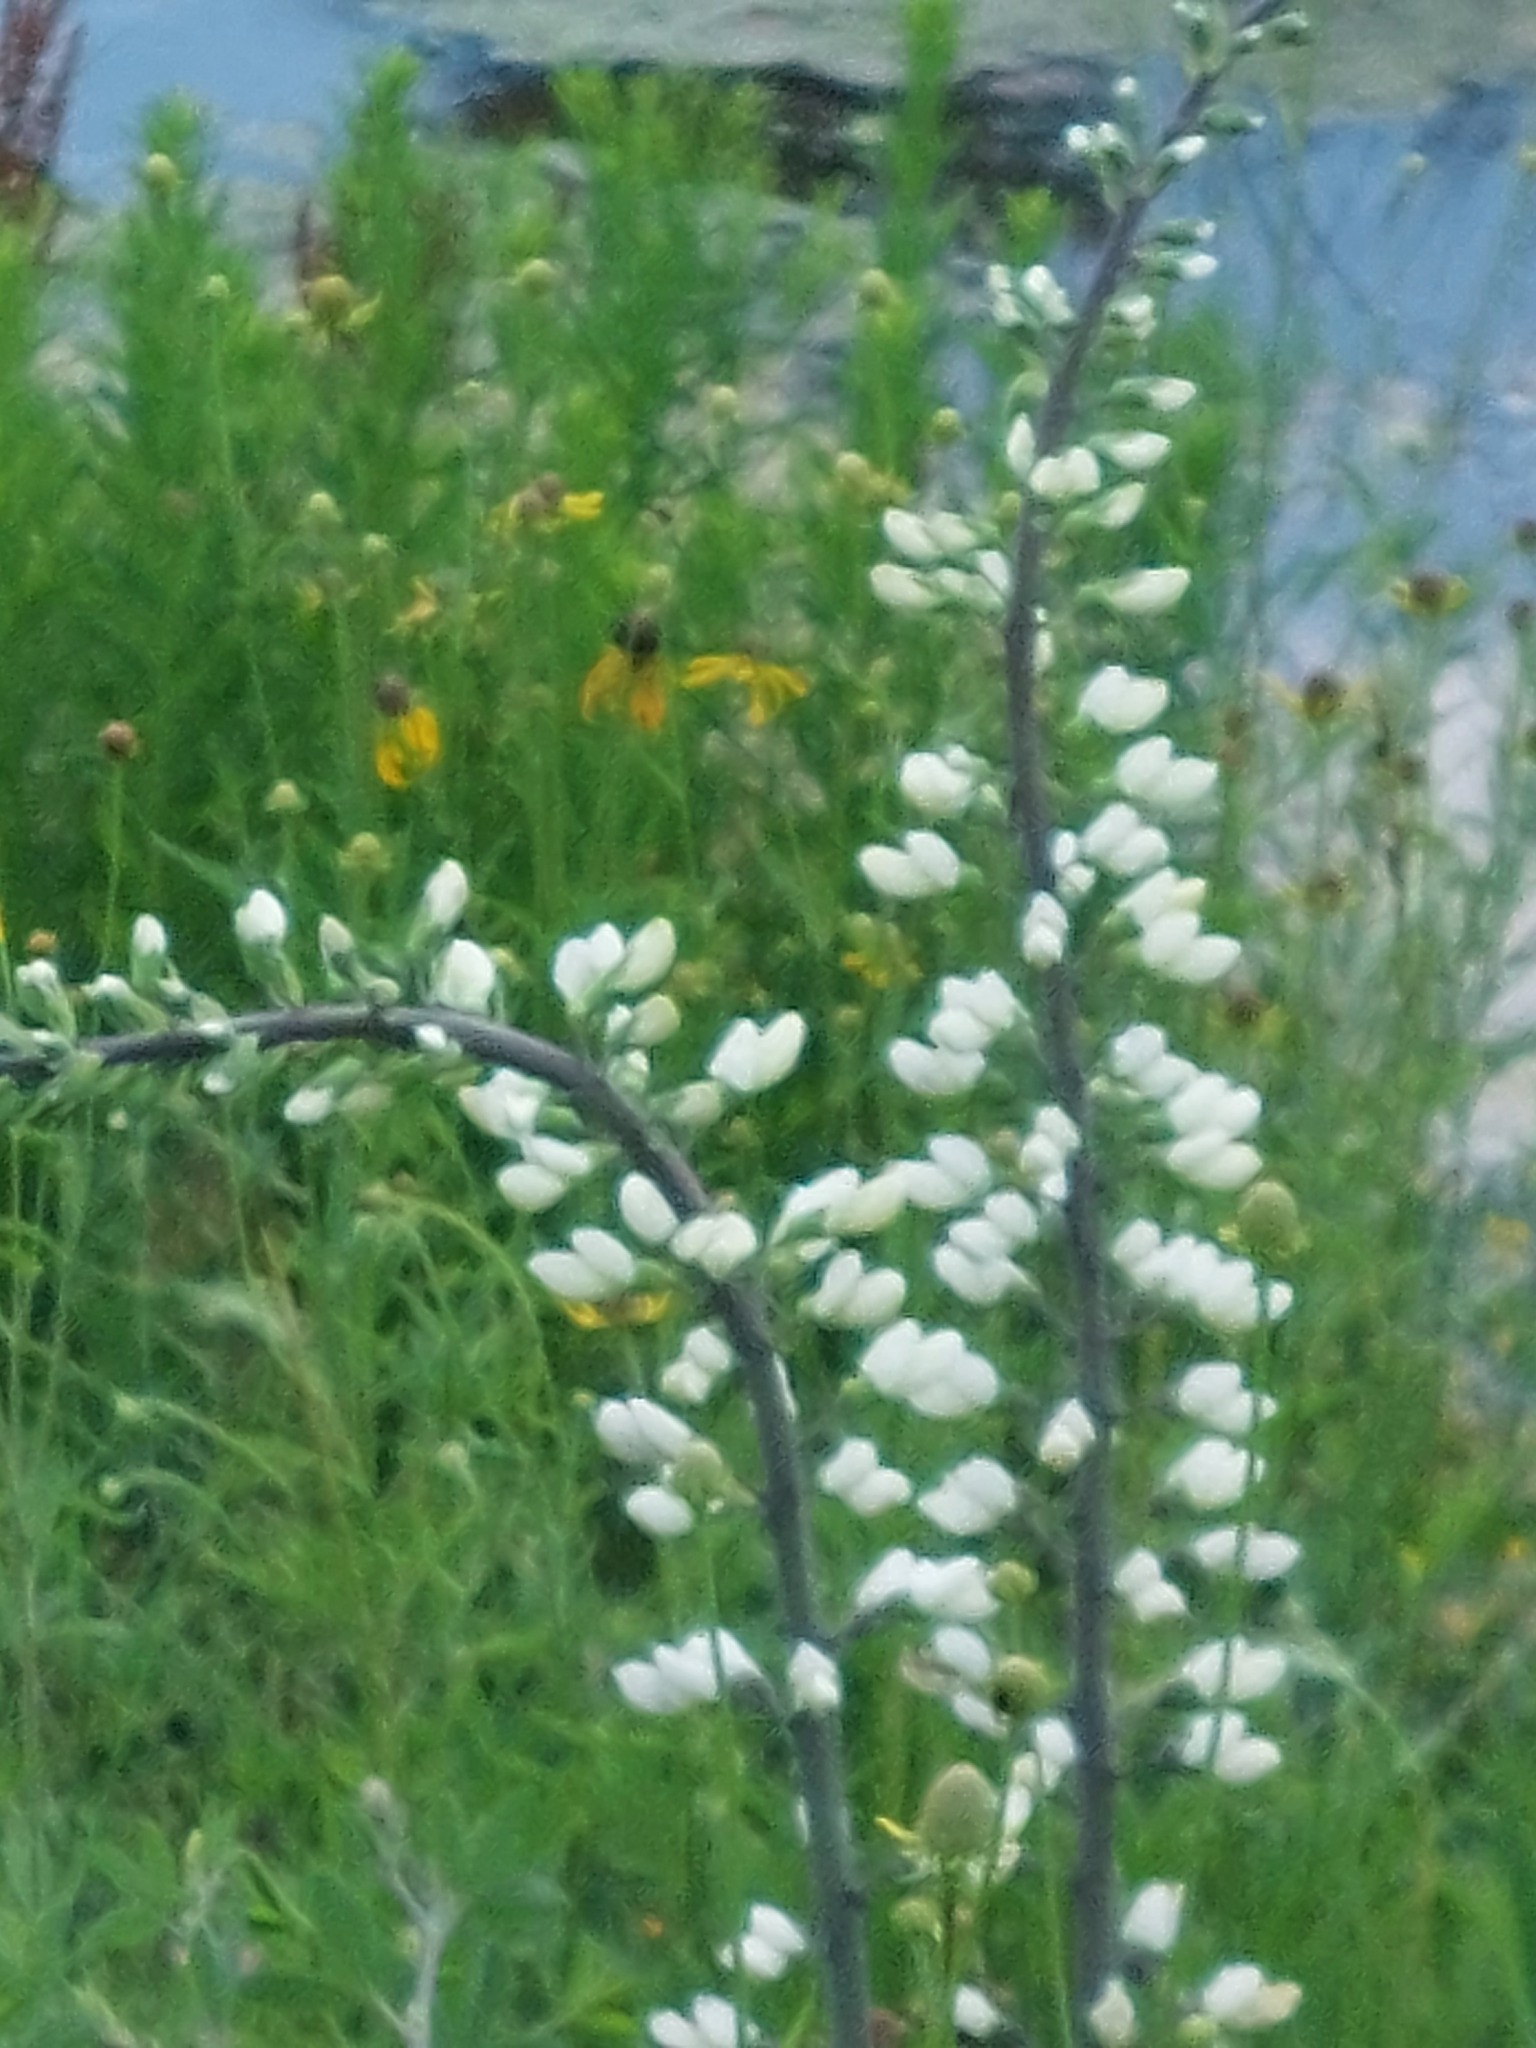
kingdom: Plantae
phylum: Tracheophyta
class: Magnoliopsida
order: Fabales
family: Fabaceae
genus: Baptisia
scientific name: Baptisia alba
